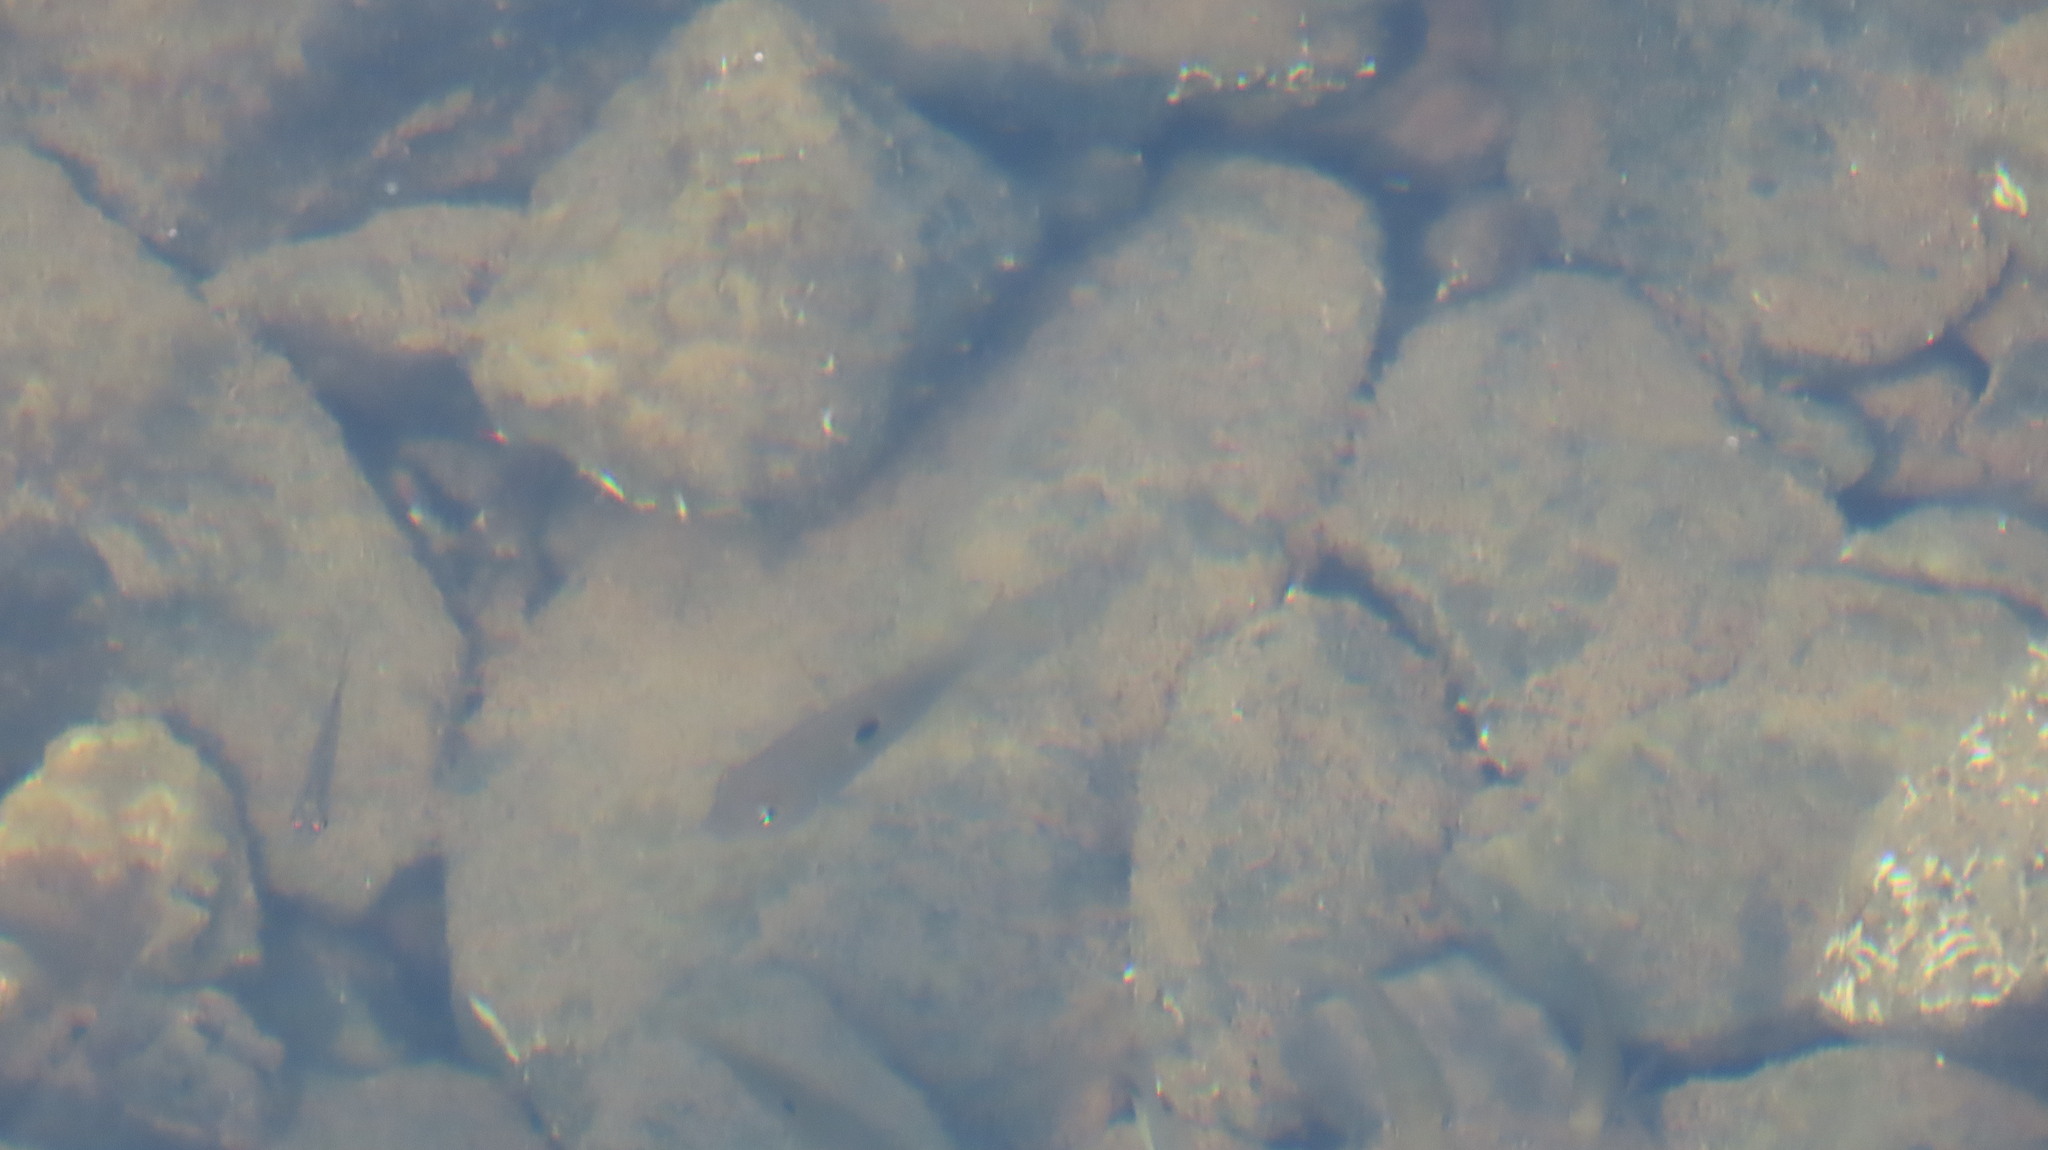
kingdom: Animalia
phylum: Chordata
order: Perciformes
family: Cichlidae
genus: Etroplus
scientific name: Etroplus maculatus
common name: Orange chromide
